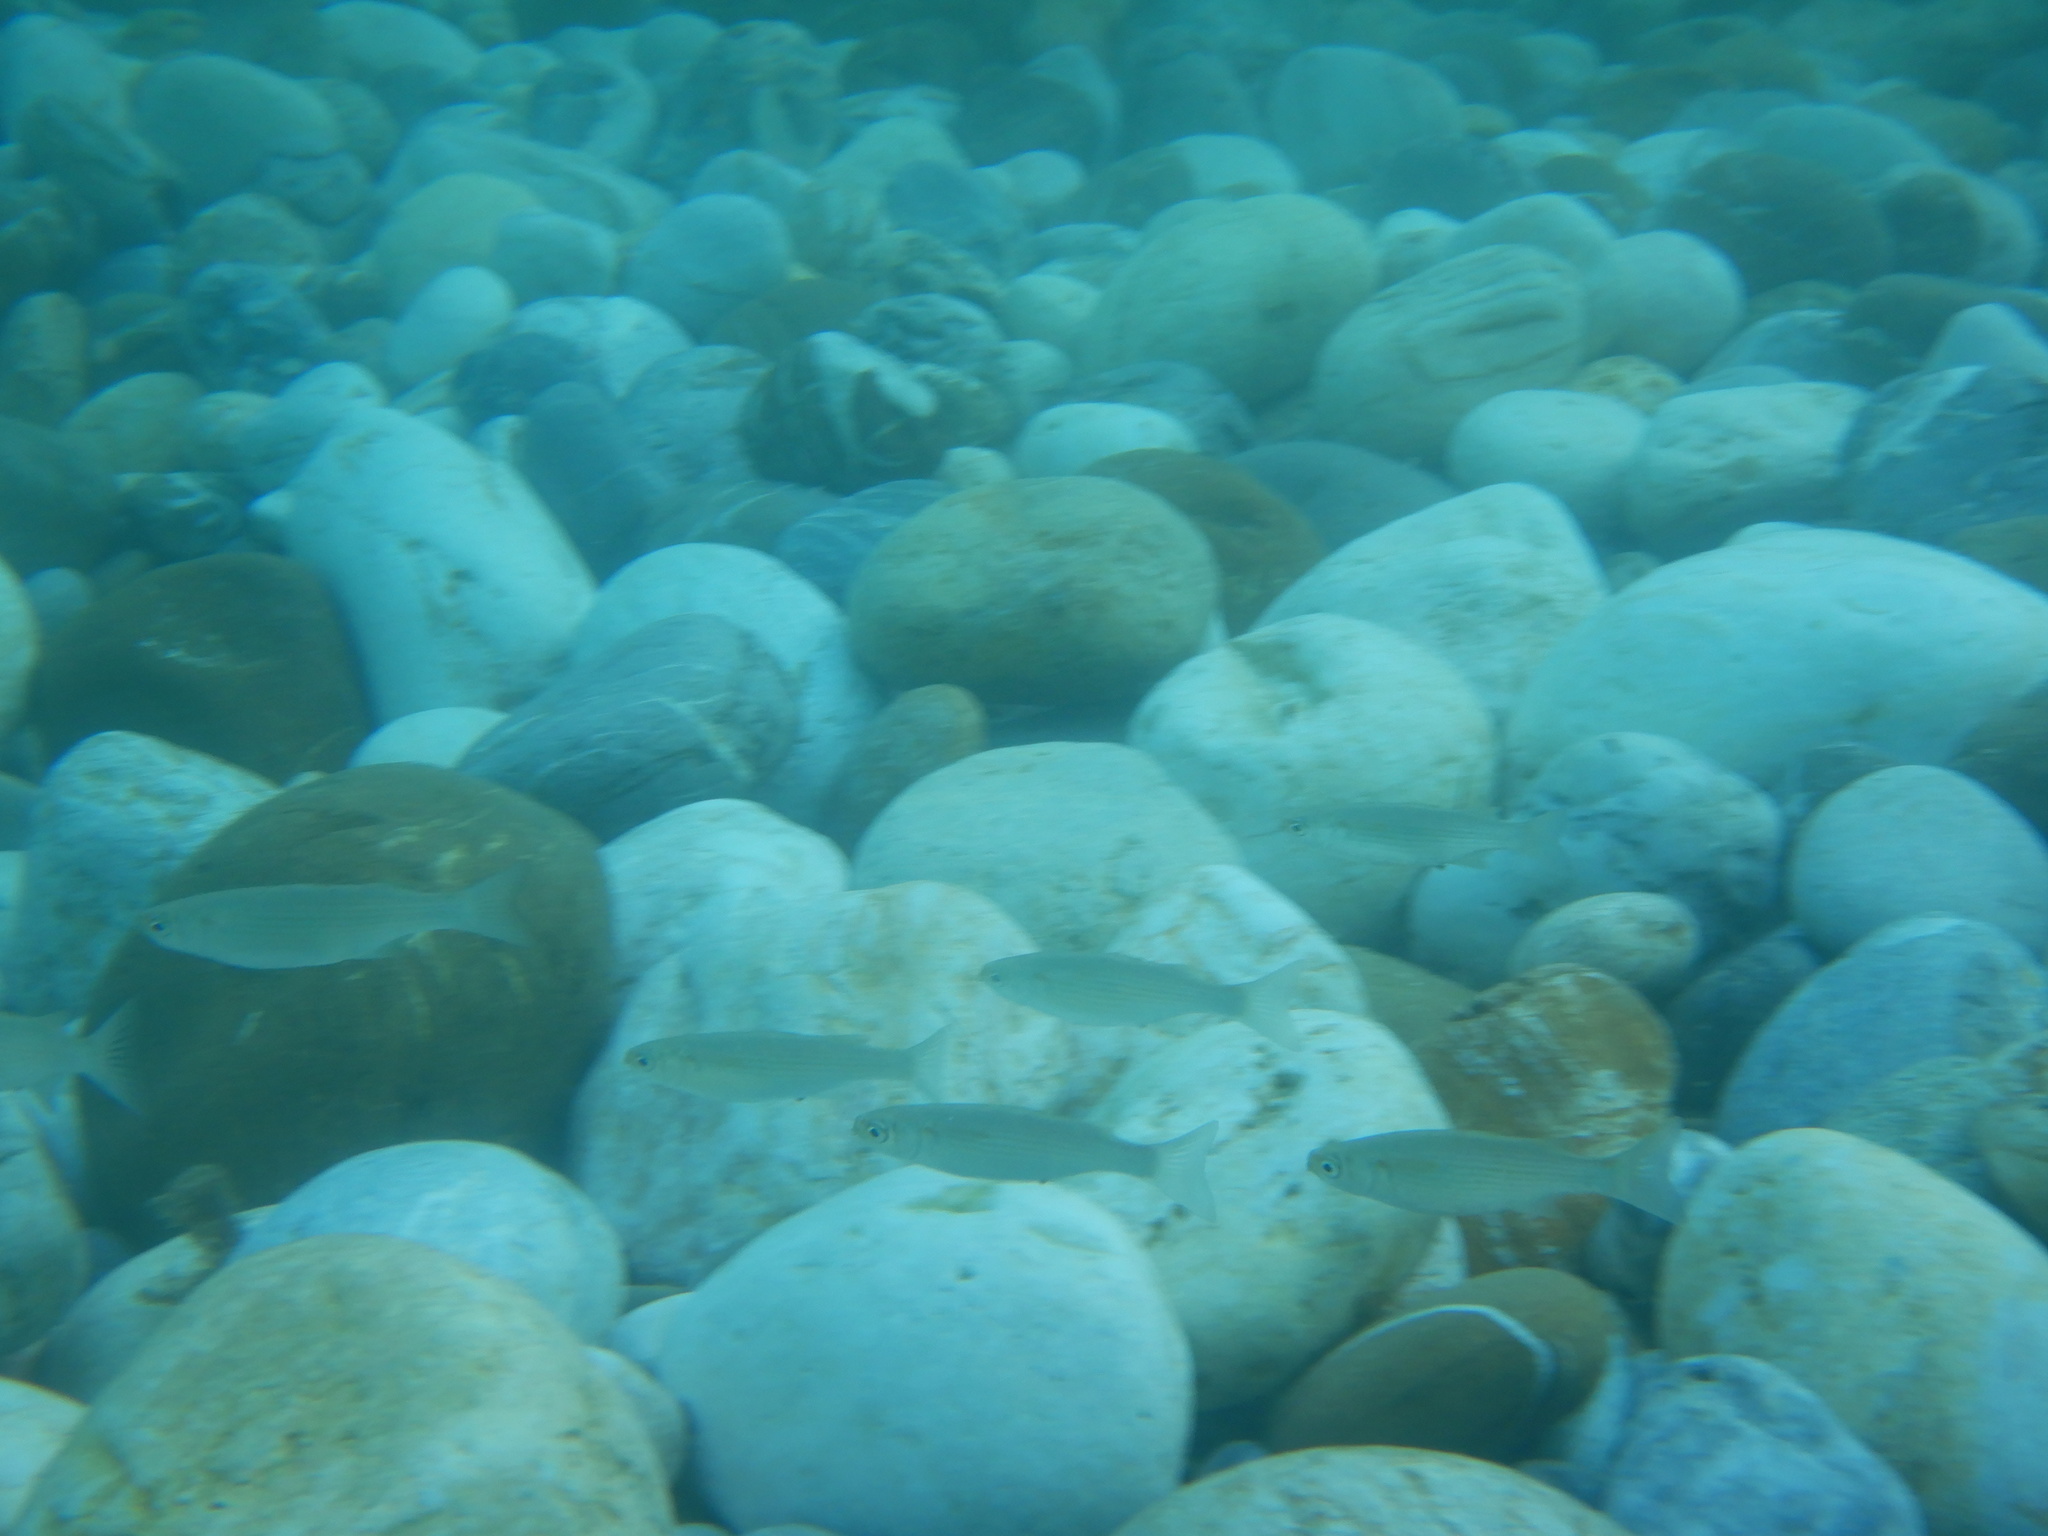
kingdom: Animalia
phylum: Chordata
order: Mugiliformes
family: Mugilidae
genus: Oedalechilus
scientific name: Oedalechilus labeo
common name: Boxlip mullet
